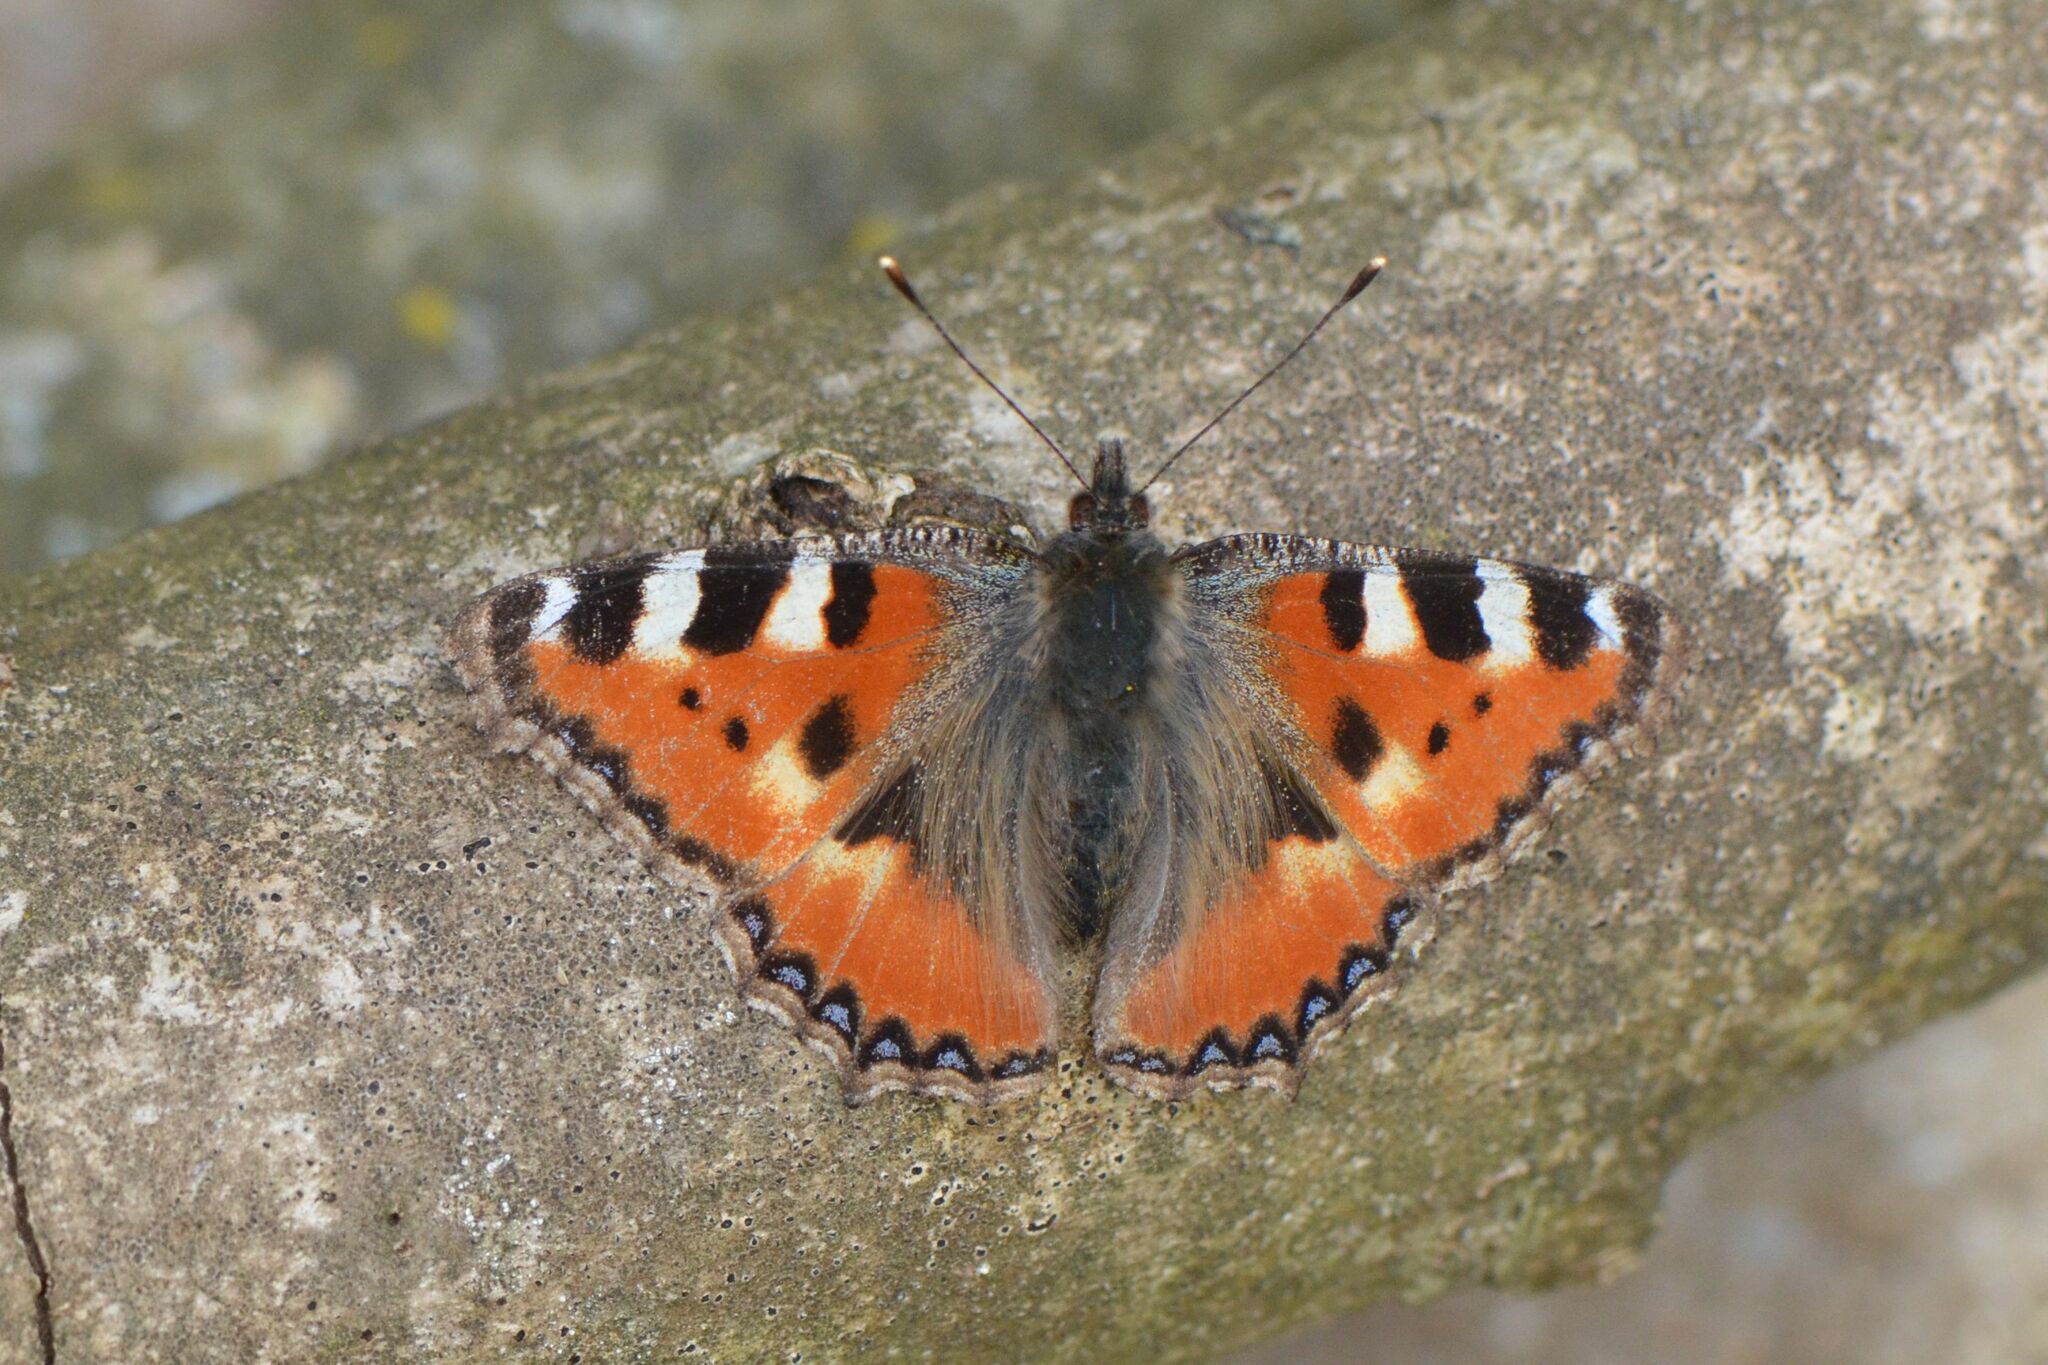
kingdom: Animalia
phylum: Arthropoda
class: Insecta
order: Lepidoptera
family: Nymphalidae
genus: Aglais
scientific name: Aglais urticae
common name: Small tortoiseshell
